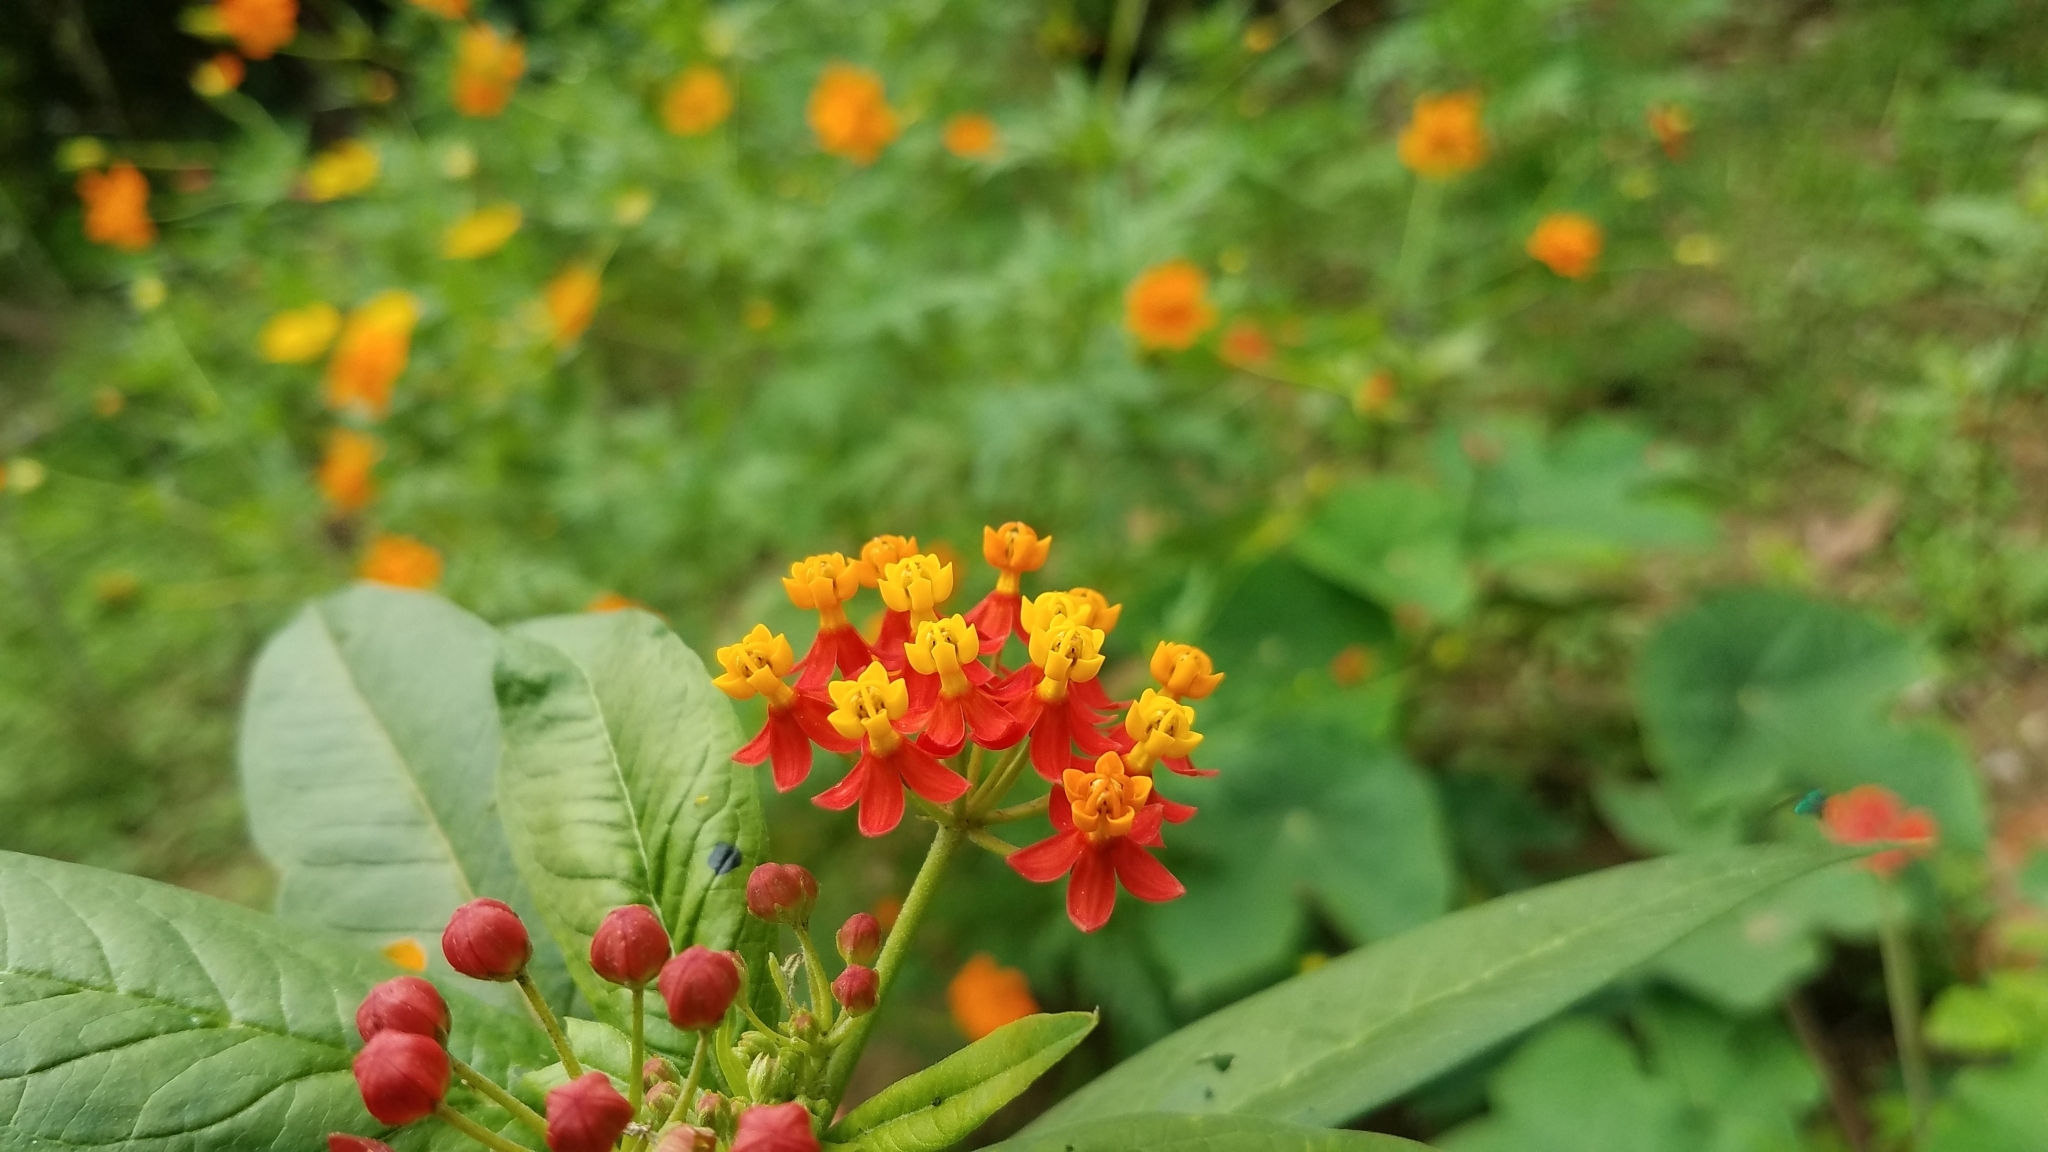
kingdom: Plantae
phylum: Tracheophyta
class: Magnoliopsida
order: Gentianales
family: Apocynaceae
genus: Asclepias
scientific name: Asclepias curassavica
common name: Bloodflower
